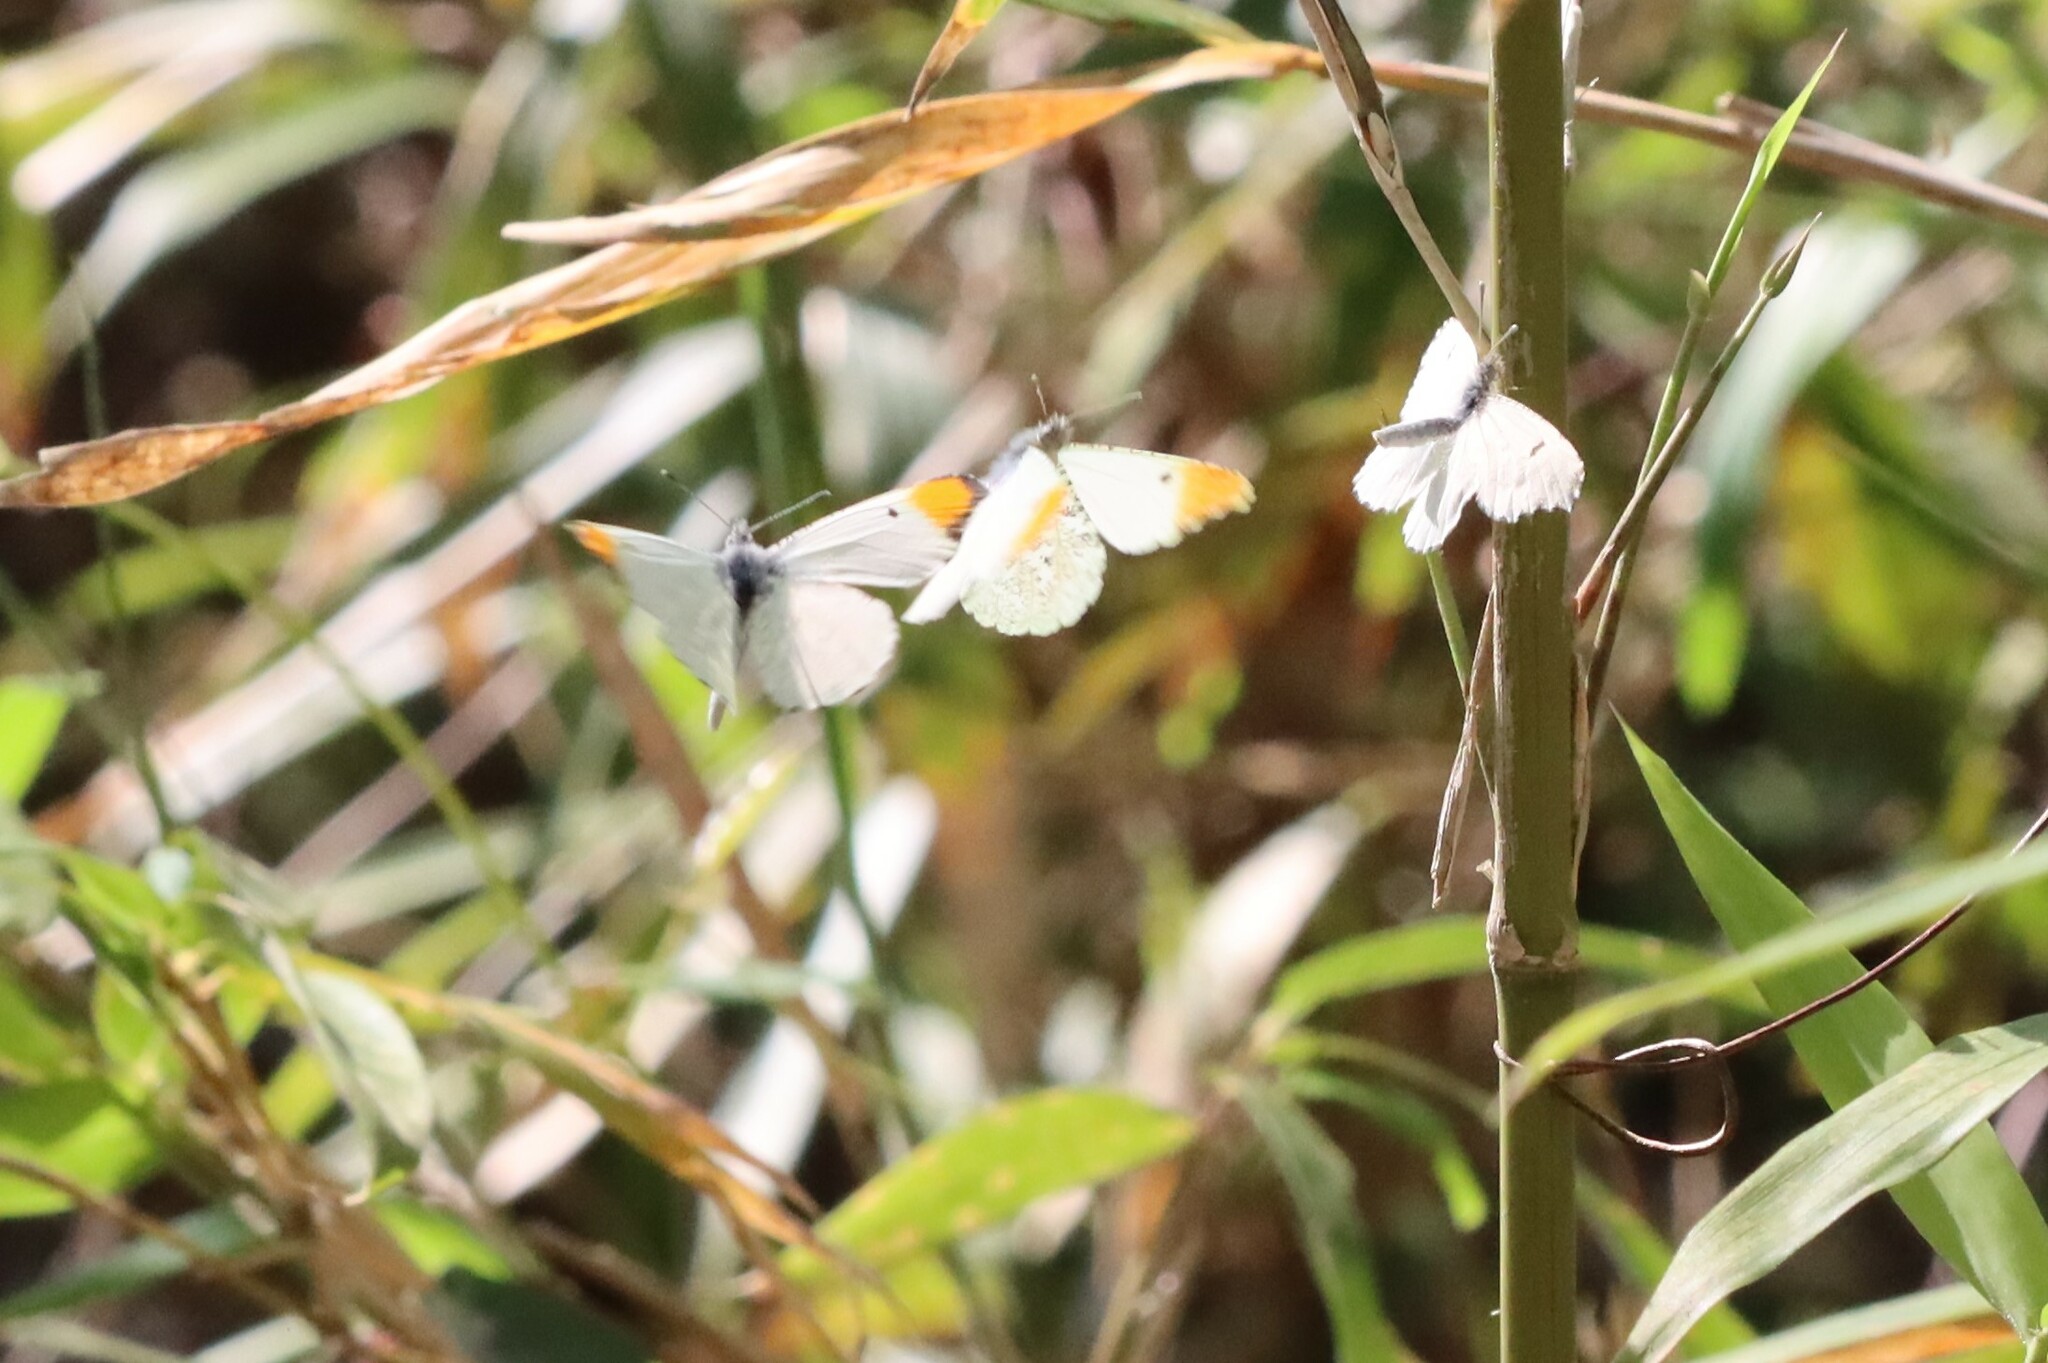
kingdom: Animalia
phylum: Arthropoda
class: Insecta
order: Lepidoptera
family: Pieridae
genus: Anthocharis
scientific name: Anthocharis midea
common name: Falcate orangetip
